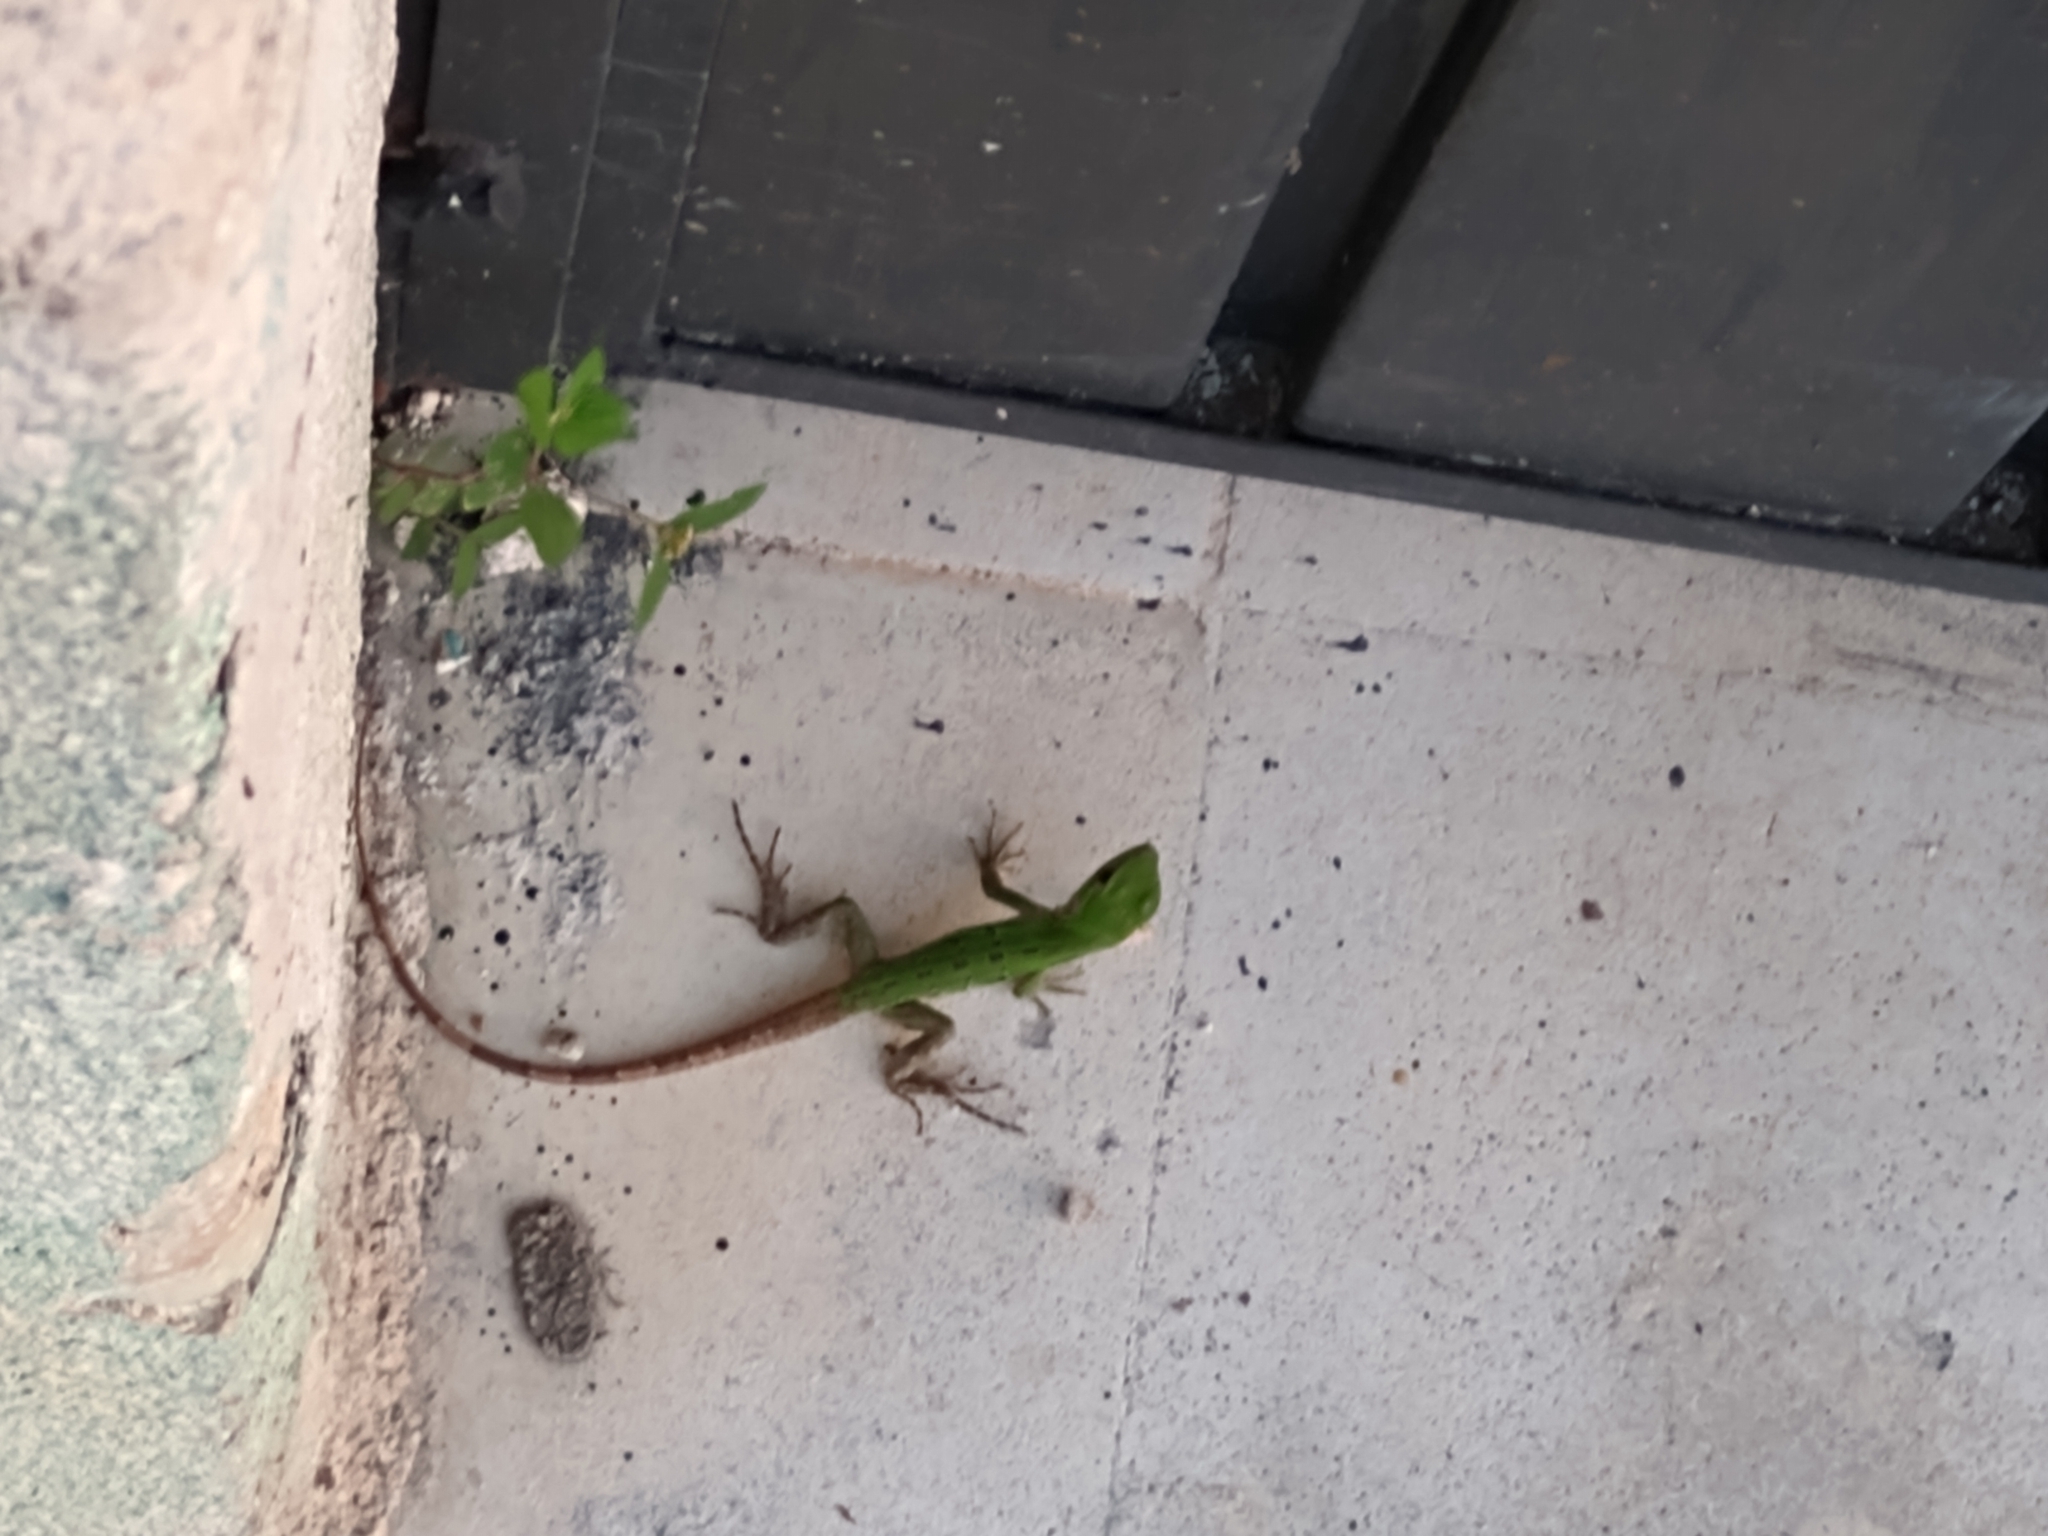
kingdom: Animalia
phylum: Chordata
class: Squamata
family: Iguanidae
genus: Ctenosaura
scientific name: Ctenosaura similis
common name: Black spiny-tailed iguana
